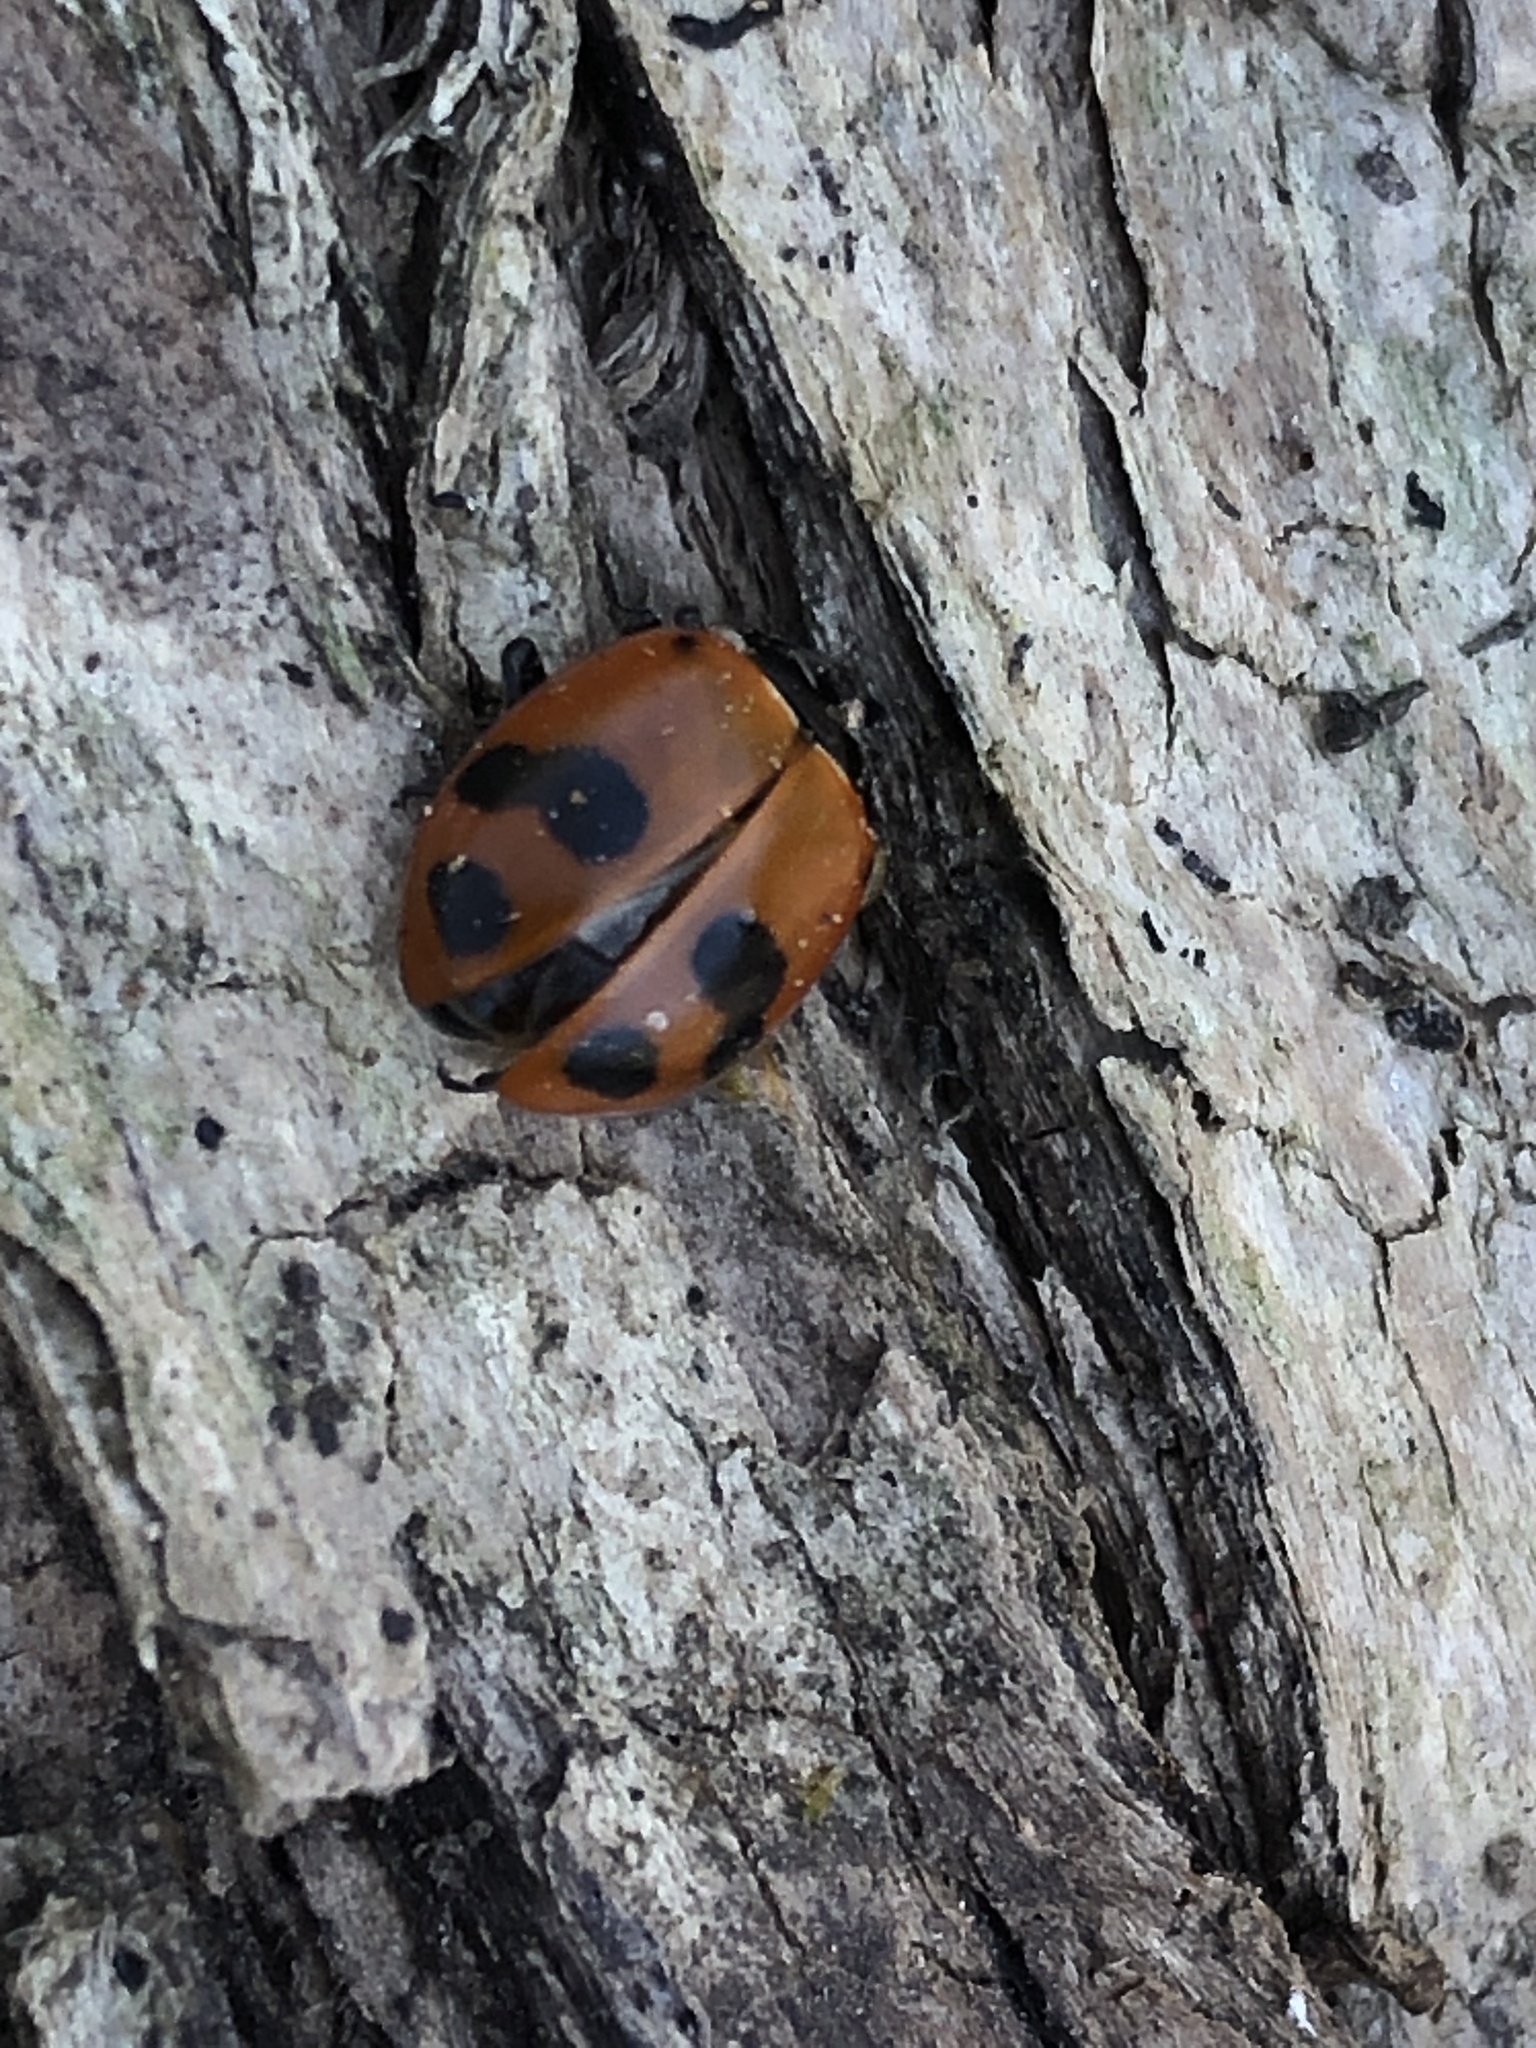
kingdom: Animalia
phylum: Arthropoda
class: Insecta
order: Coleoptera
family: Coccinellidae
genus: Hippodamia
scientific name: Hippodamia glacialis
